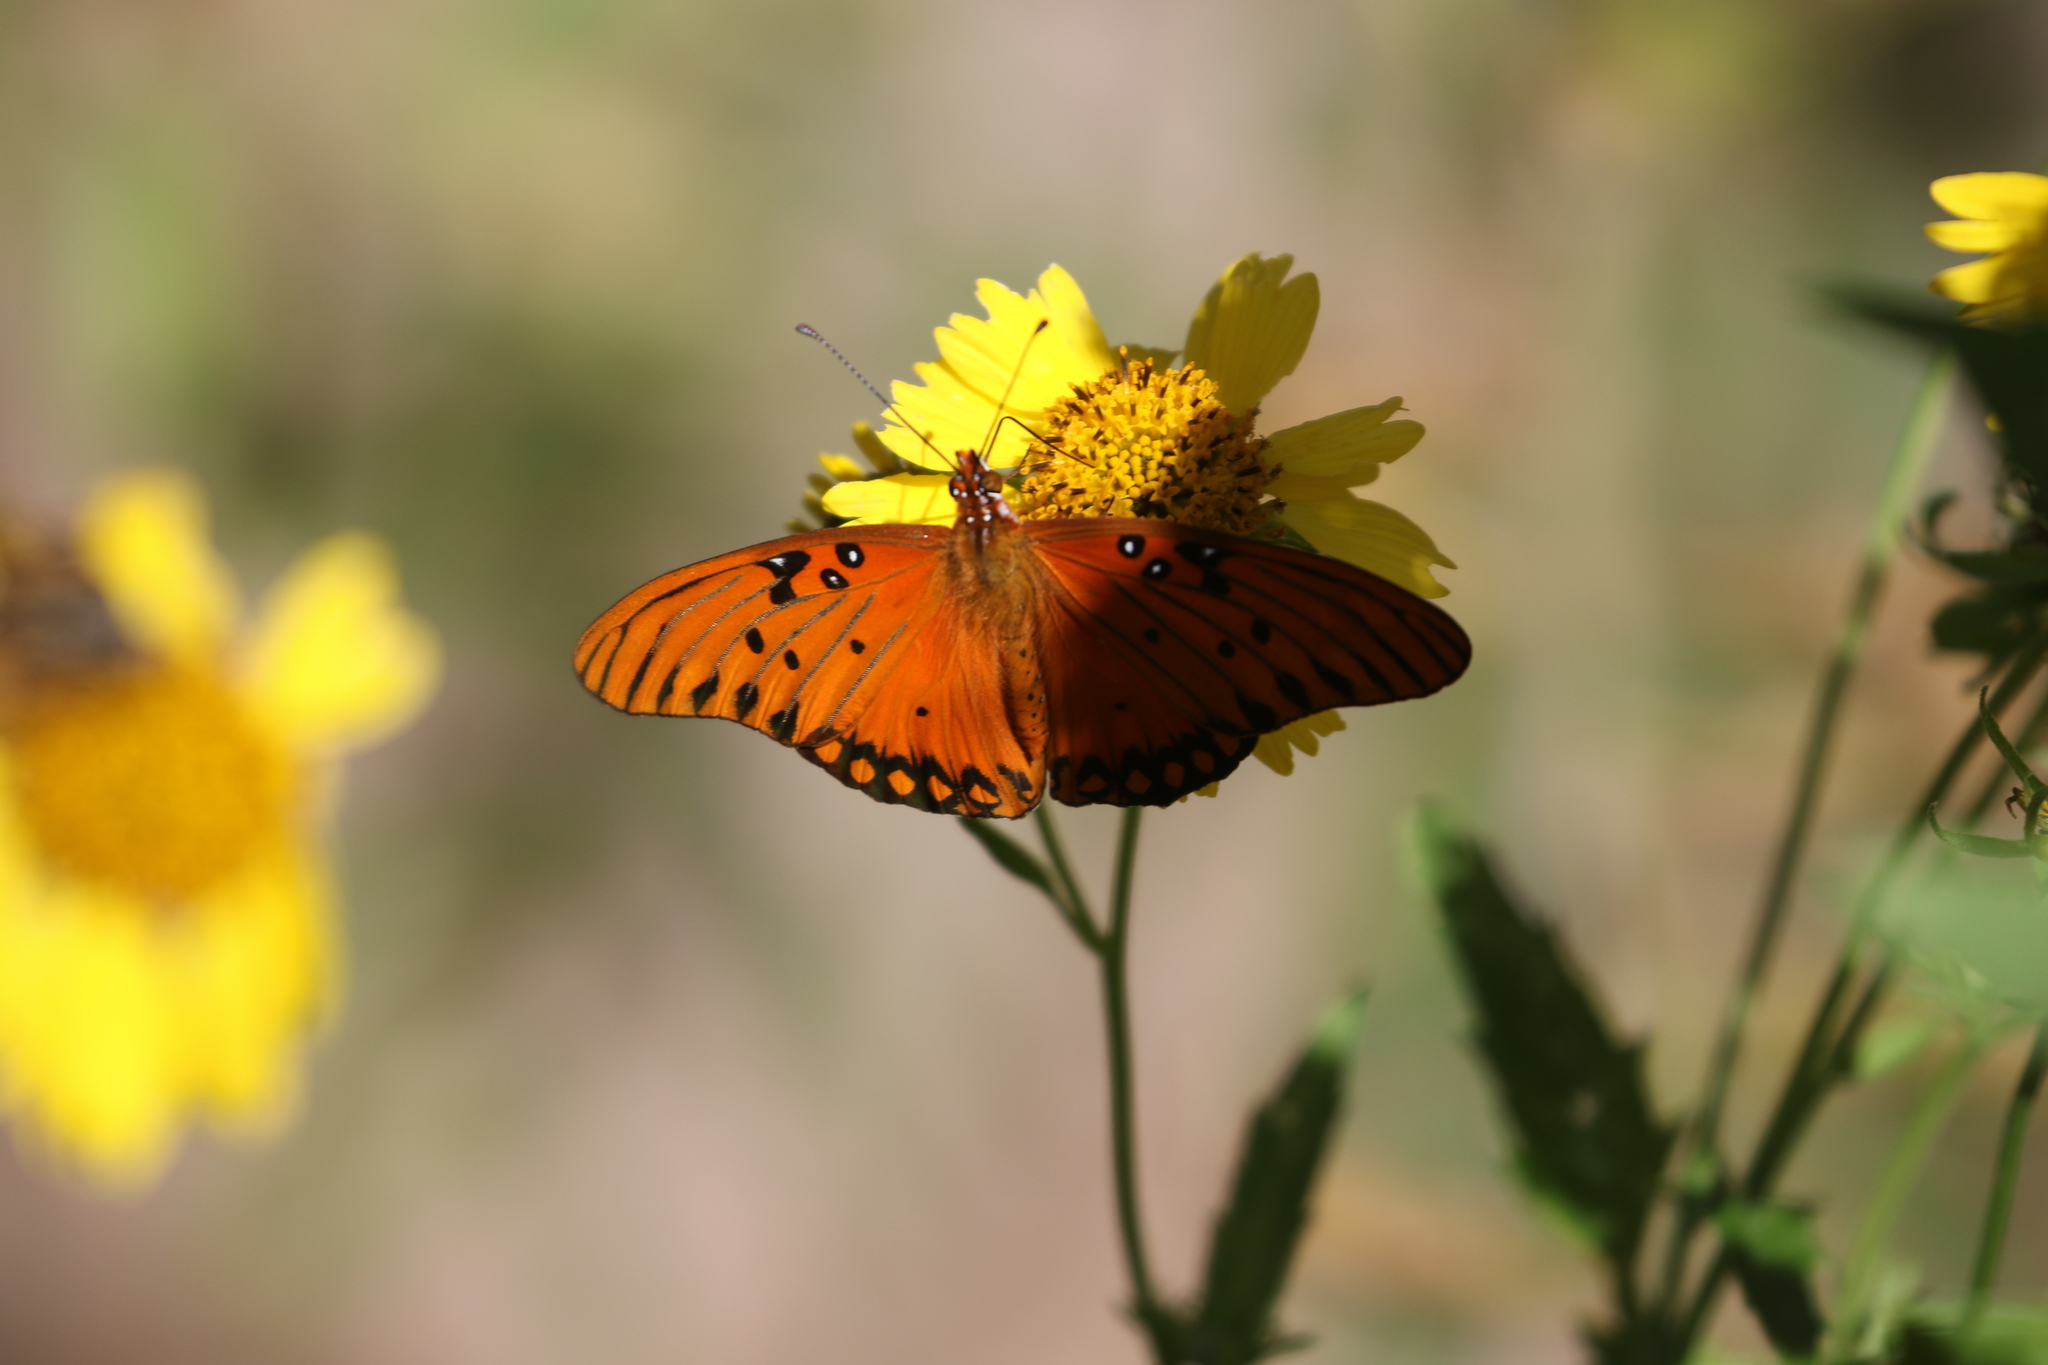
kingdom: Animalia
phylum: Arthropoda
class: Insecta
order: Lepidoptera
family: Nymphalidae
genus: Dione
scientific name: Dione vanillae
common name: Gulf fritillary
